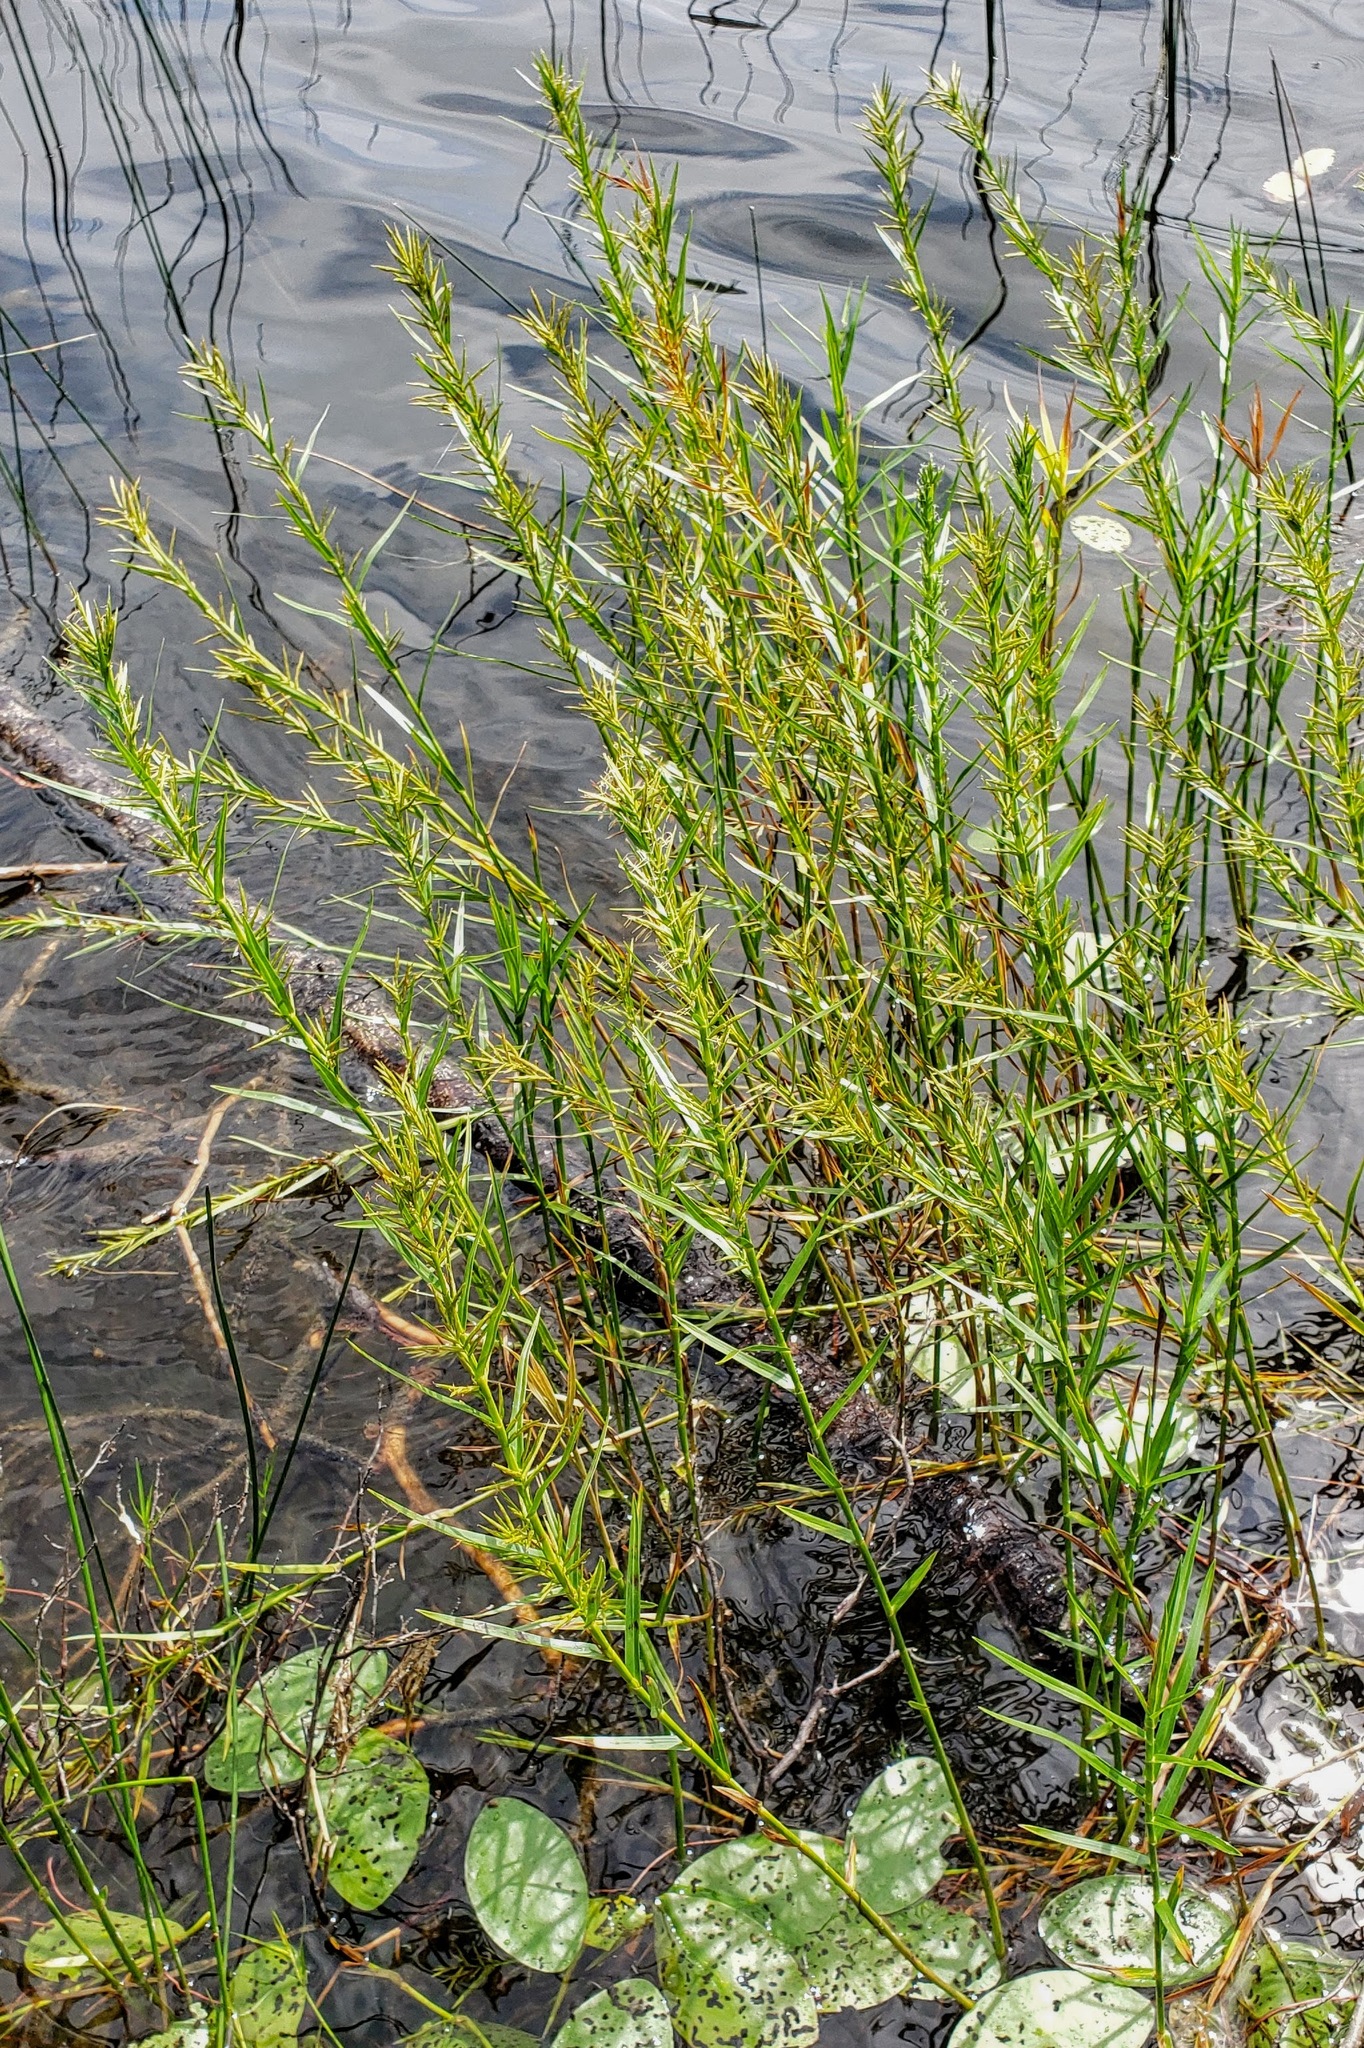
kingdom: Plantae
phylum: Tracheophyta
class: Liliopsida
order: Poales
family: Cyperaceae
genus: Dulichium
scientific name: Dulichium arundinaceum
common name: Three-way sedge
